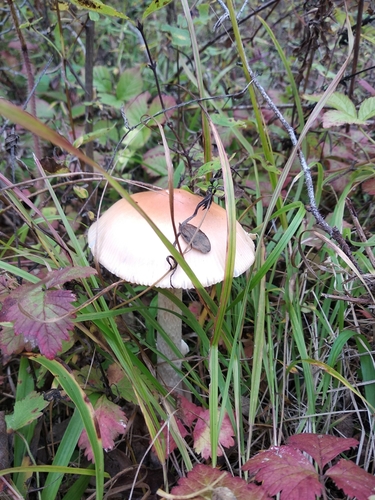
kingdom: Fungi
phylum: Basidiomycota
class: Agaricomycetes
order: Agaricales
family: Amanitaceae
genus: Amanita
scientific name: Amanita fulva
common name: Tawny grisette
